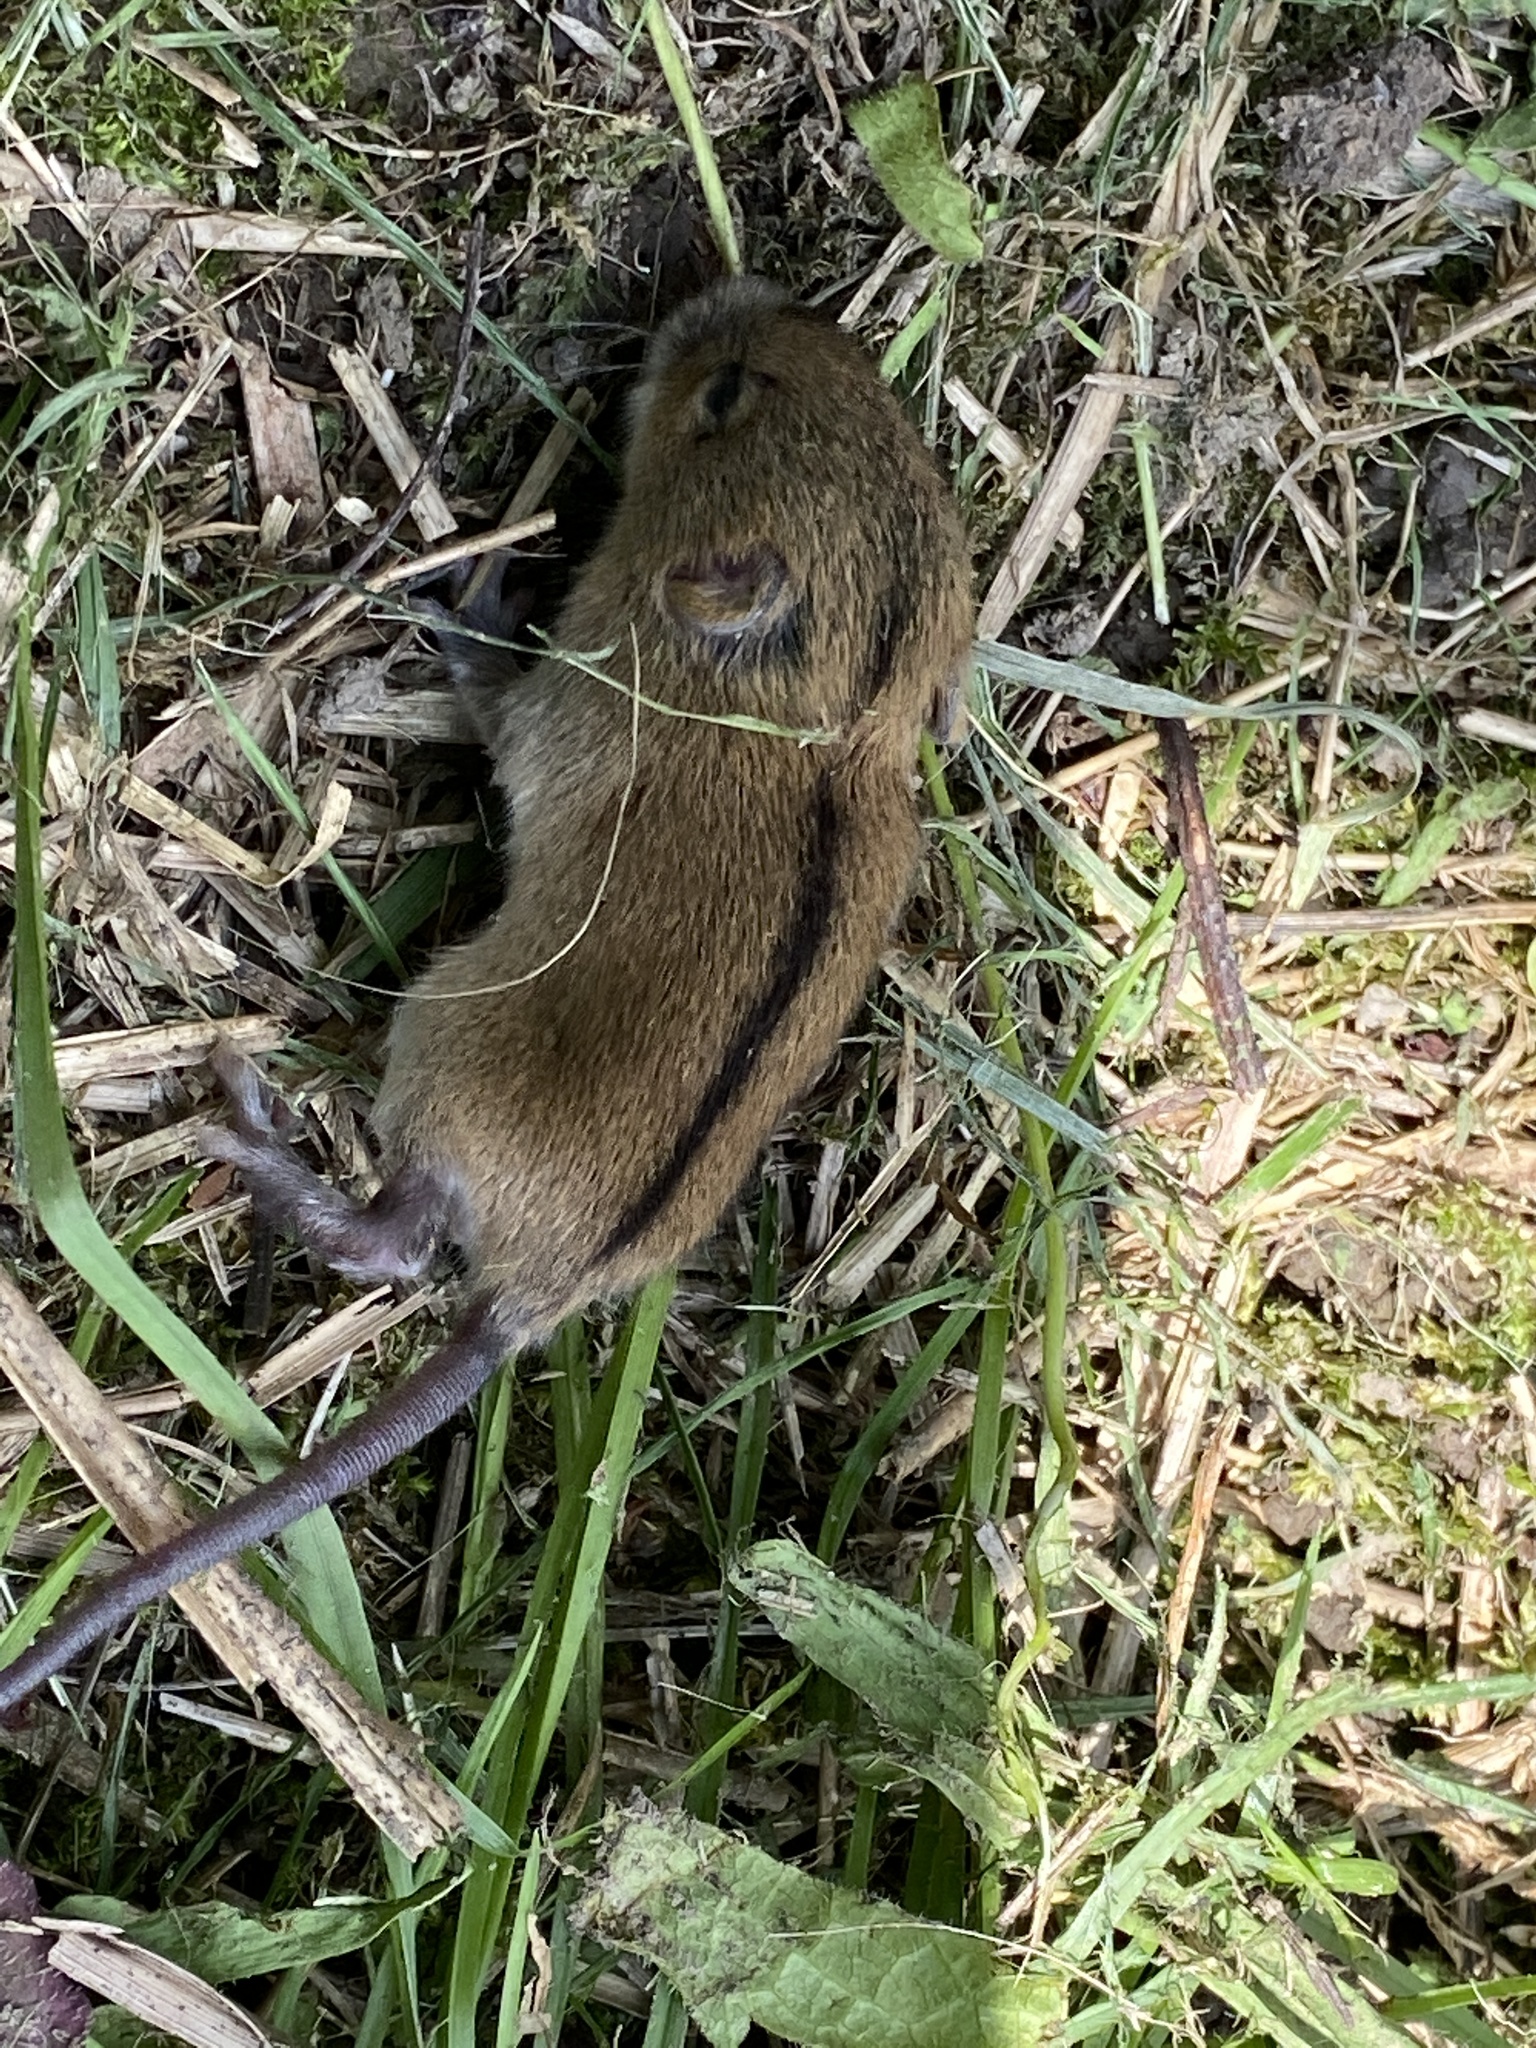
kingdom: Animalia
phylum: Chordata
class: Mammalia
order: Rodentia
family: Muridae
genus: Apodemus
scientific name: Apodemus agrarius
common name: Striped field mouse
